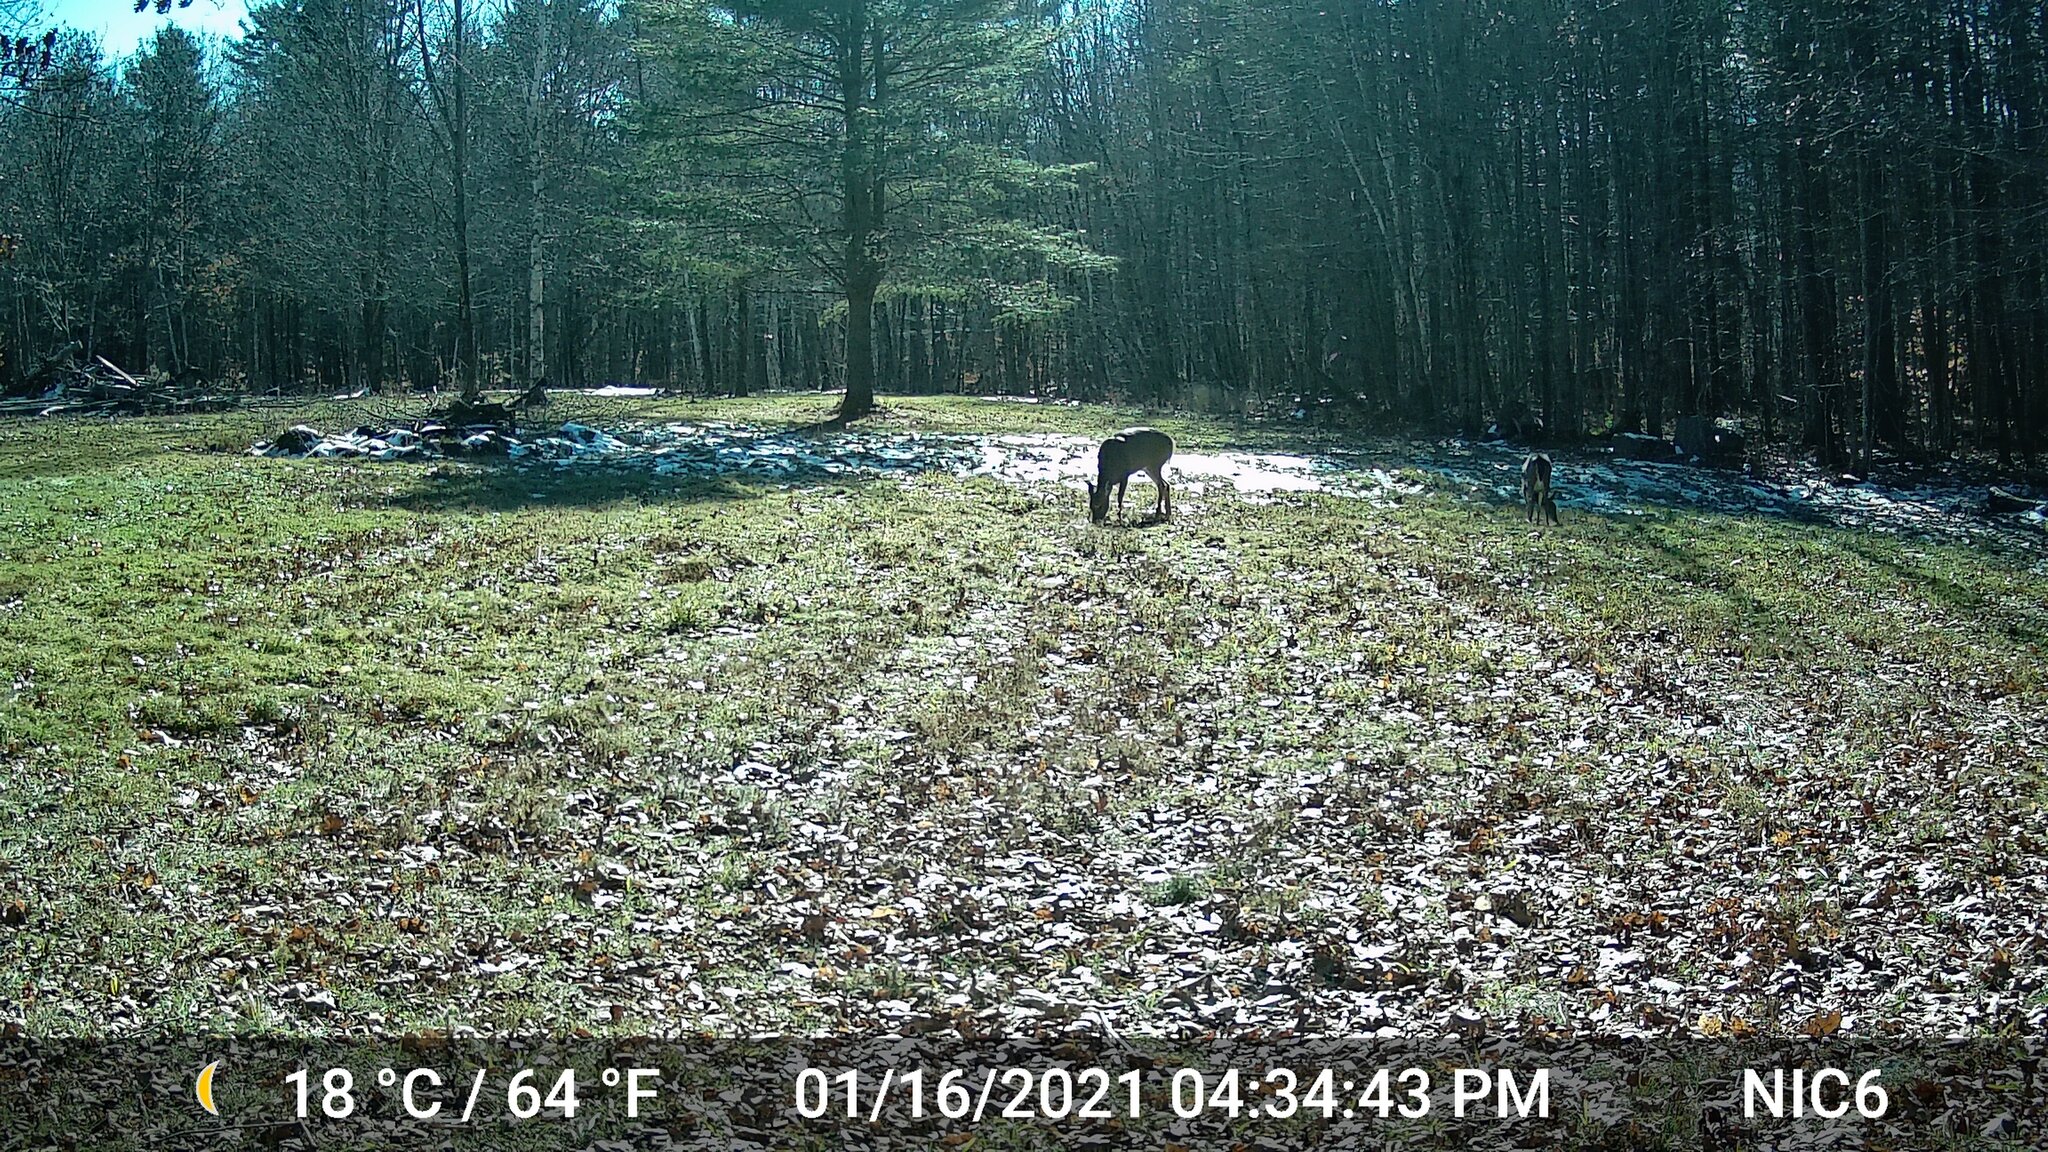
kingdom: Animalia
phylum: Chordata
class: Mammalia
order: Artiodactyla
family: Cervidae
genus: Odocoileus
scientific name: Odocoileus virginianus
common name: White-tailed deer
